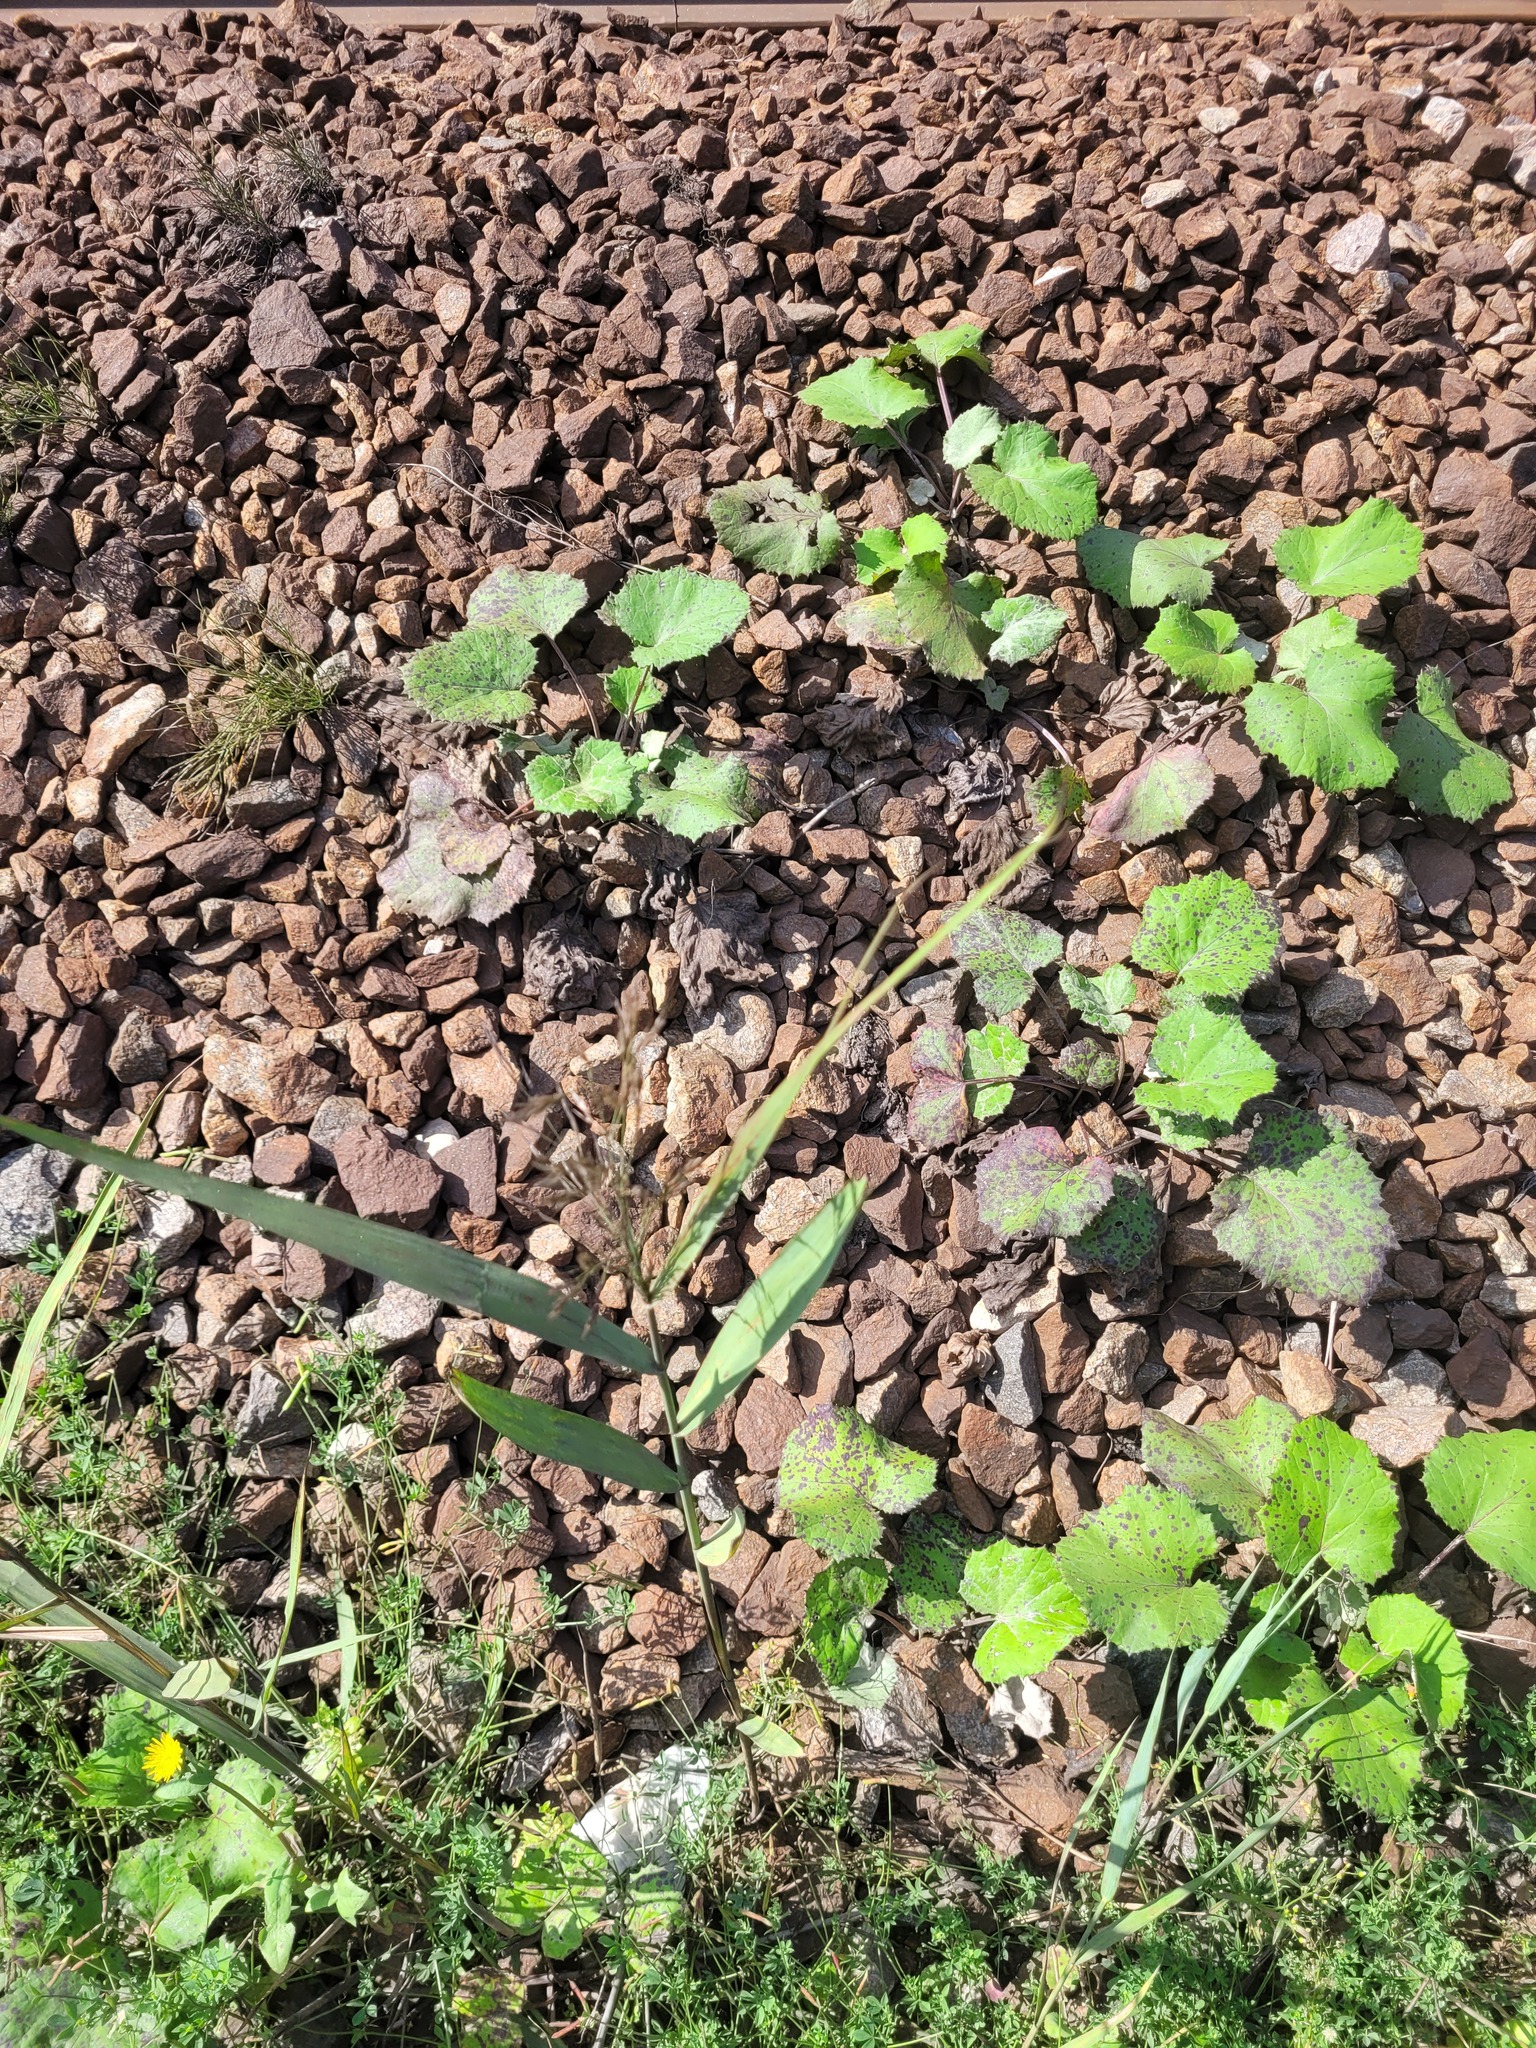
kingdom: Plantae
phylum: Tracheophyta
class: Liliopsida
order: Poales
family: Poaceae
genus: Phragmites
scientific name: Phragmites australis
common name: Common reed
